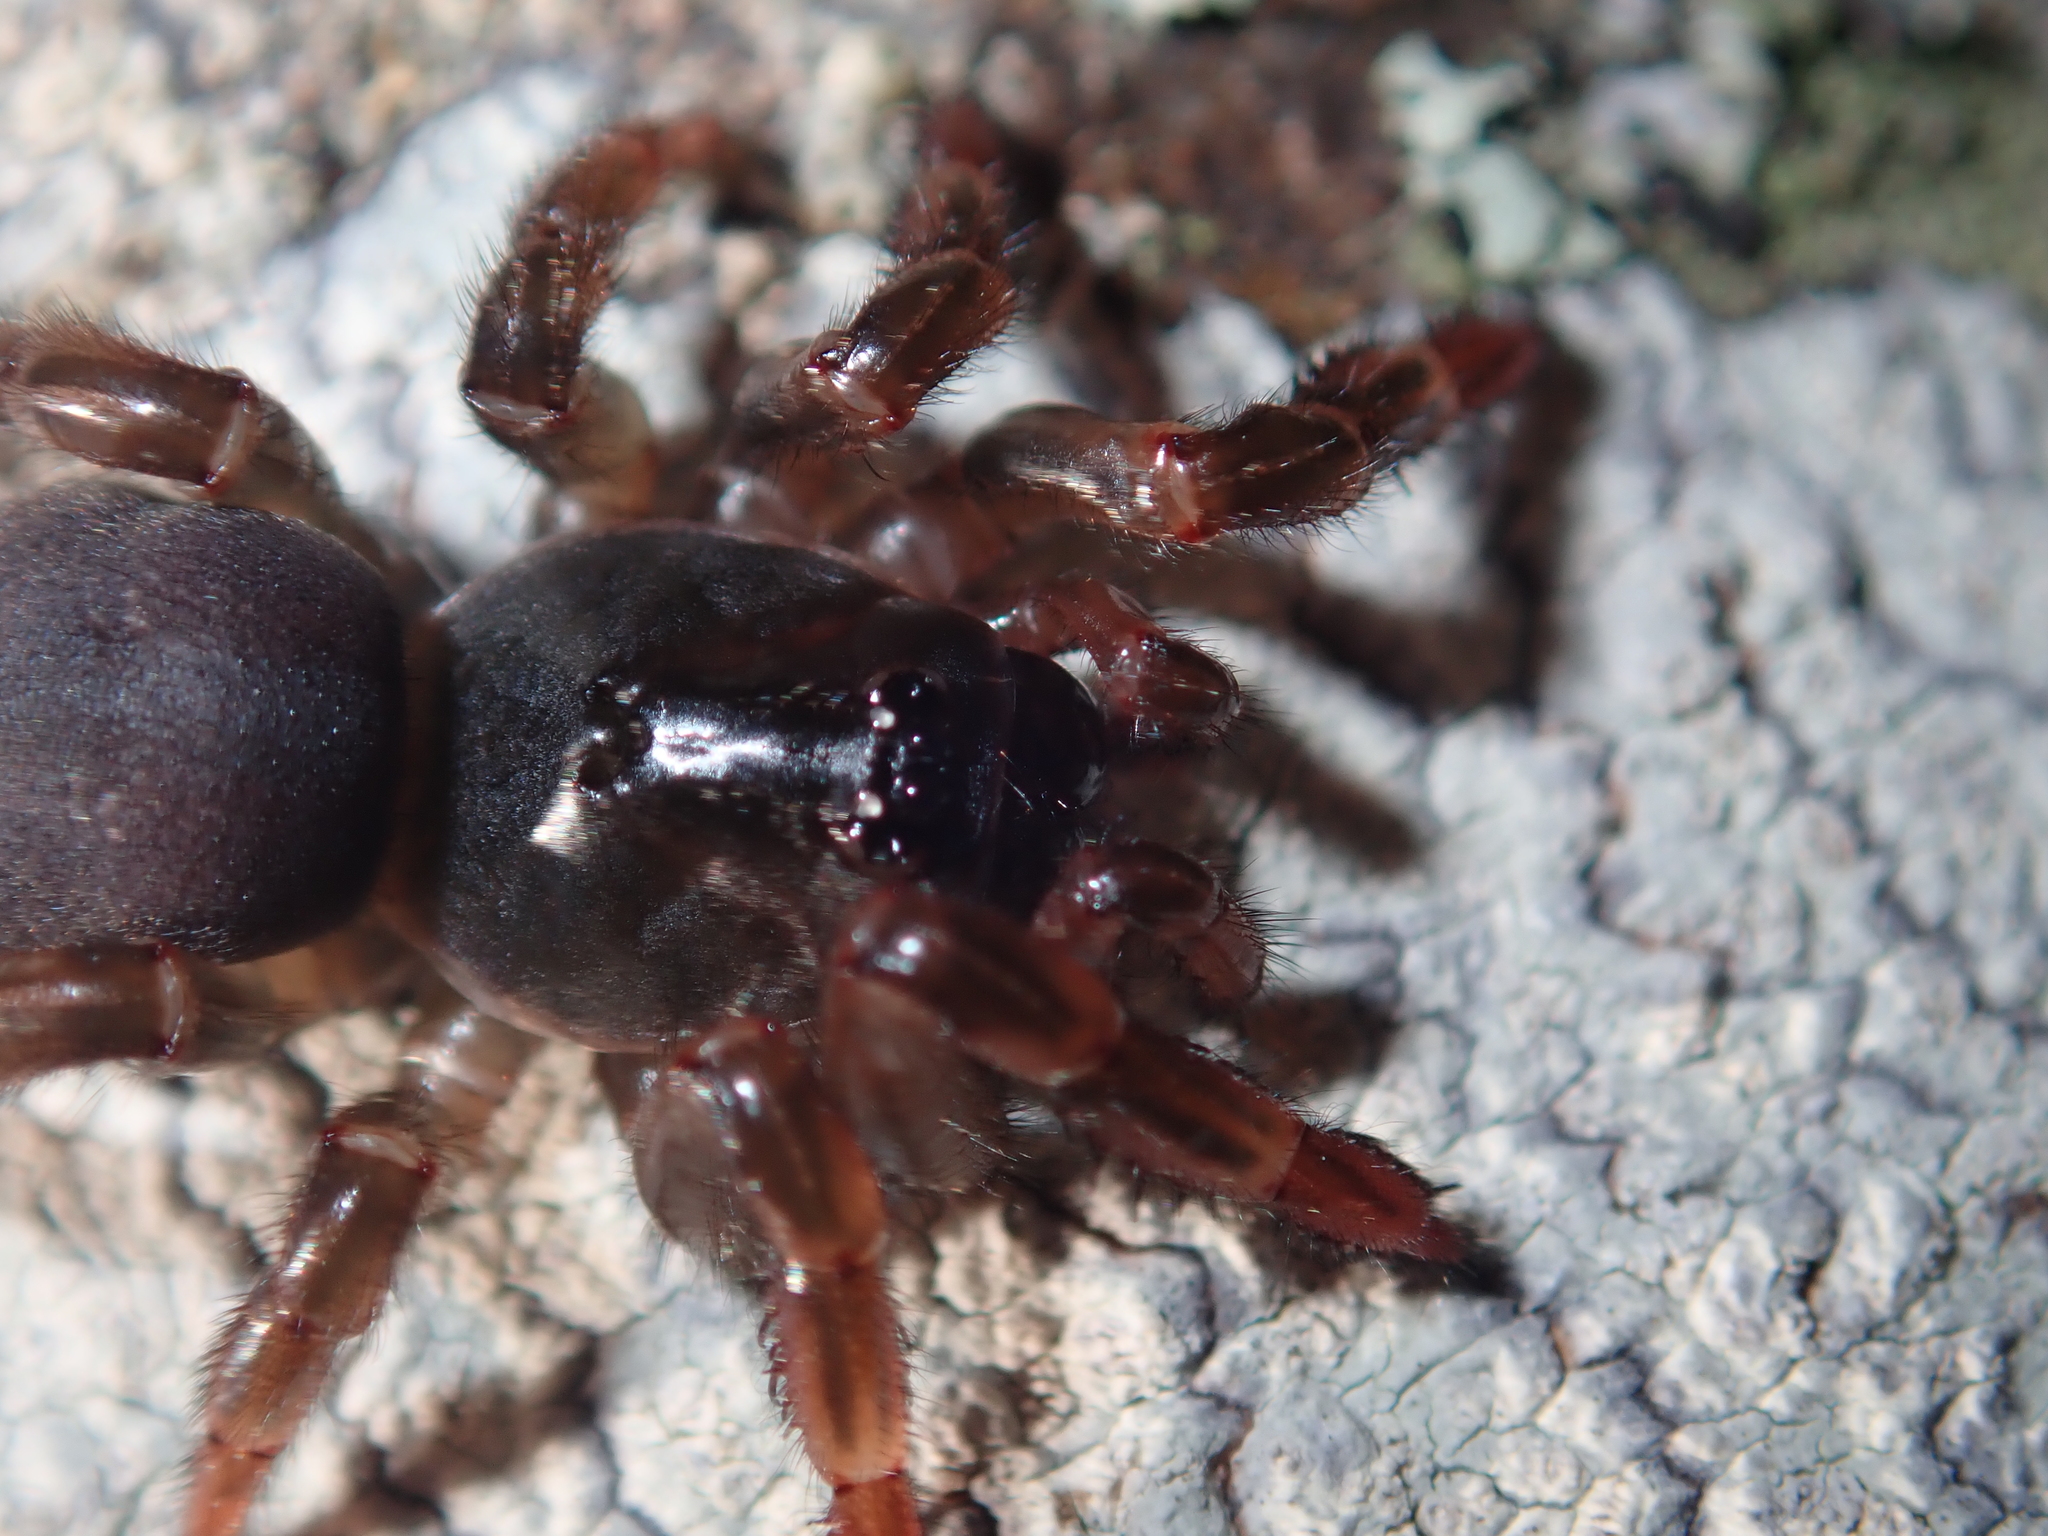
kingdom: Animalia
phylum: Arthropoda
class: Arachnida
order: Araneae
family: Migidae
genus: Migas
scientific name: Migas
